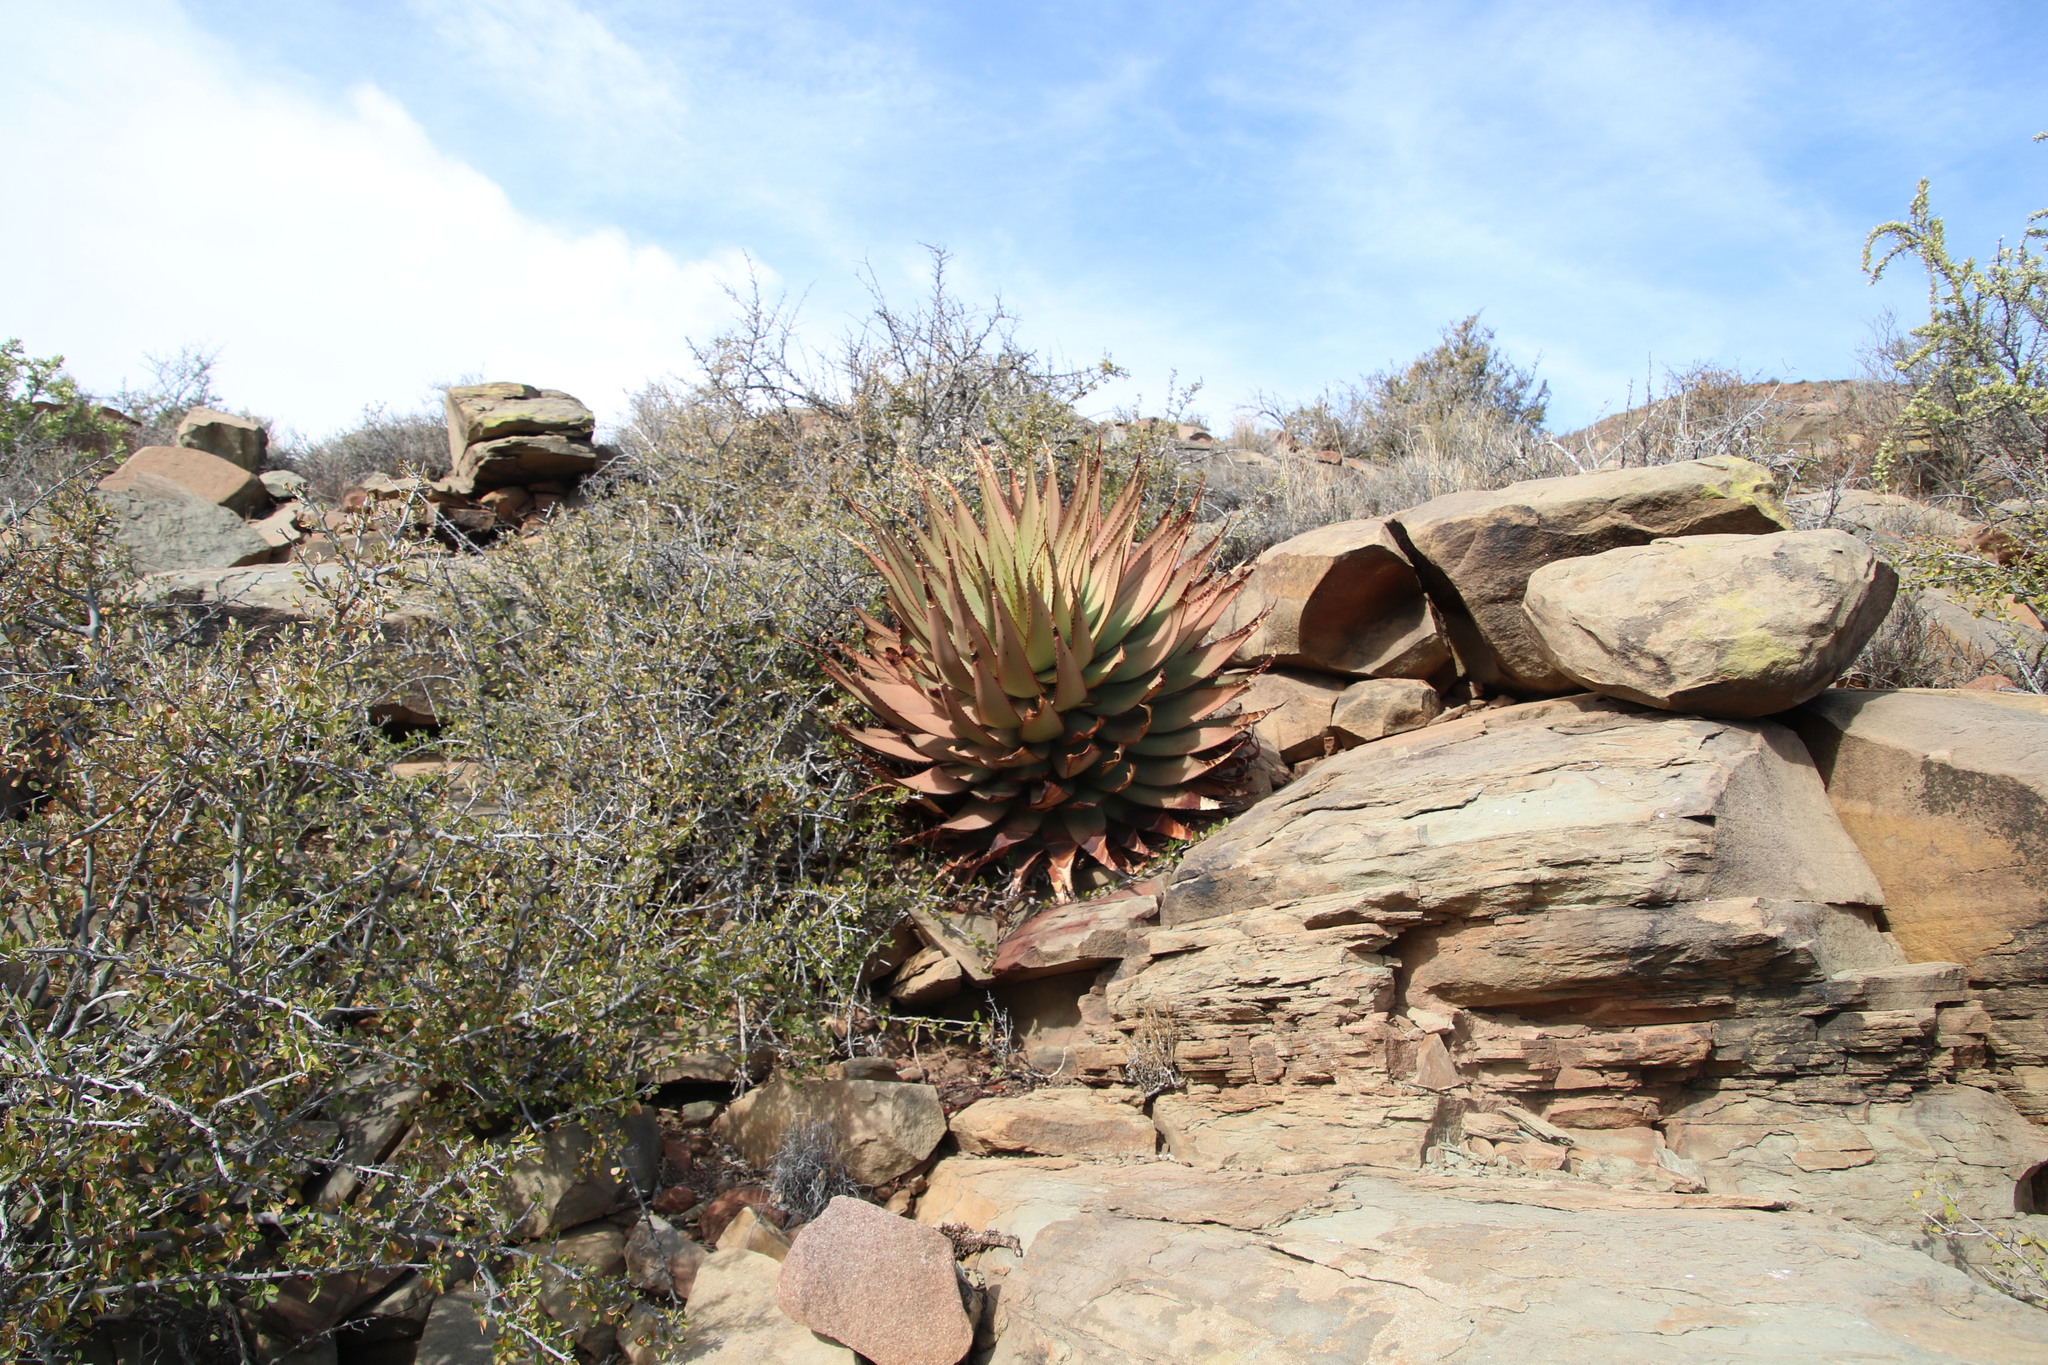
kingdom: Plantae
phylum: Tracheophyta
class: Liliopsida
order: Asparagales
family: Asphodelaceae
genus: Aloe
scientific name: Aloe broomii
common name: Berg alwyn
